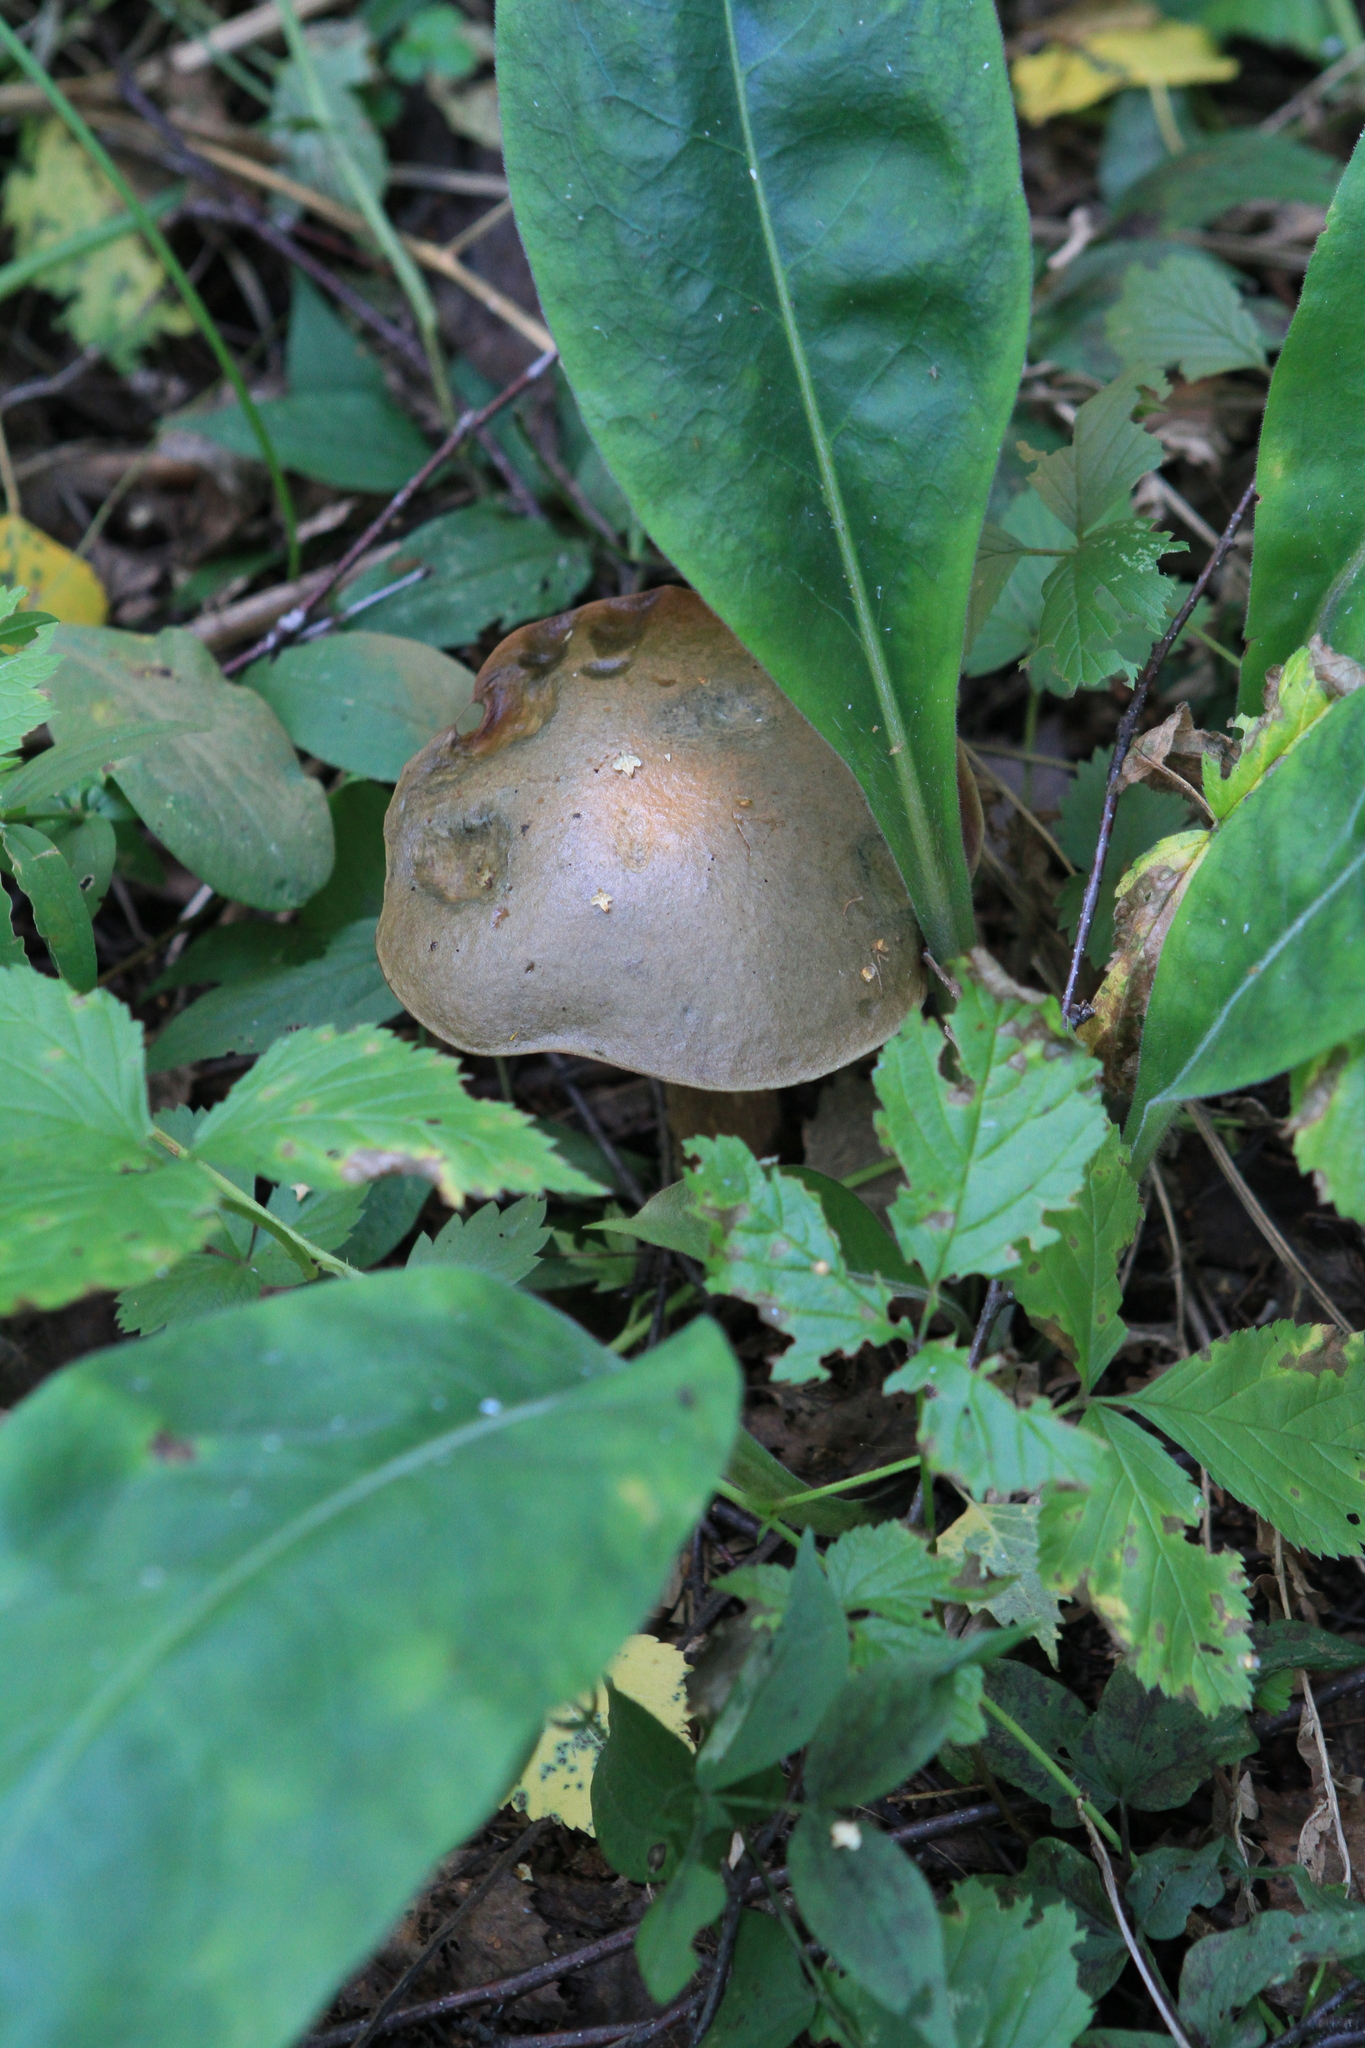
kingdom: Plantae
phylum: Tracheophyta
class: Magnoliopsida
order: Boraginales
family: Boraginaceae
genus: Pulmonaria
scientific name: Pulmonaria mollis
